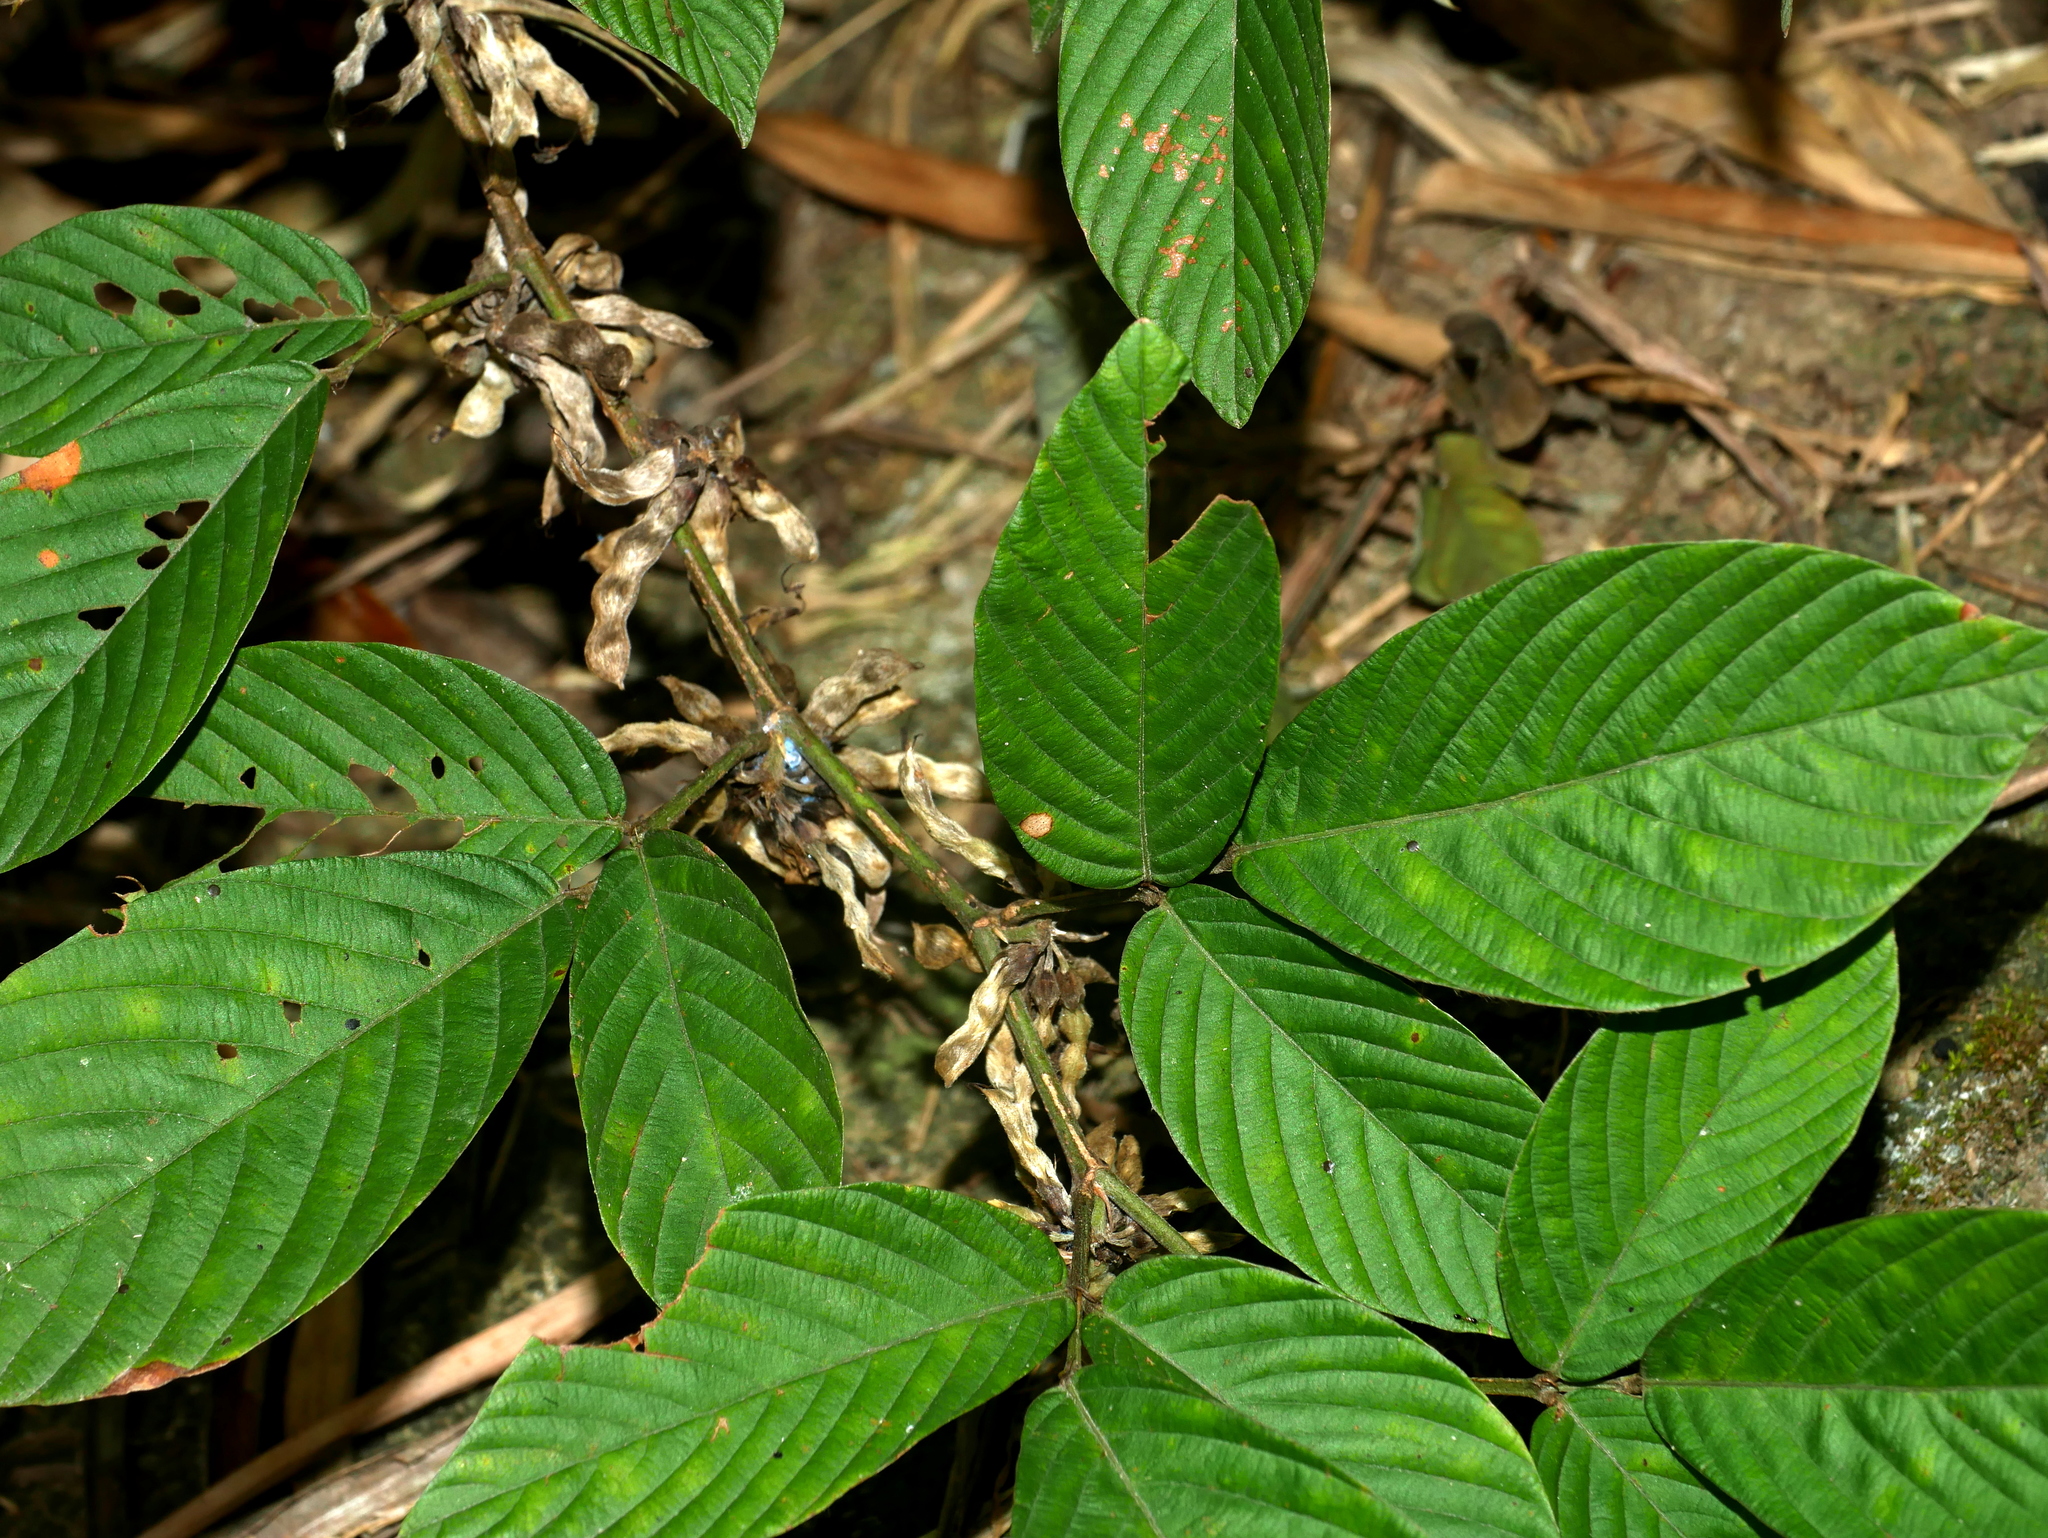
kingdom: Plantae
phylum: Tracheophyta
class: Magnoliopsida
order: Fabales
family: Fabaceae
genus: Dendrolobium
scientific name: Dendrolobium triangulare
